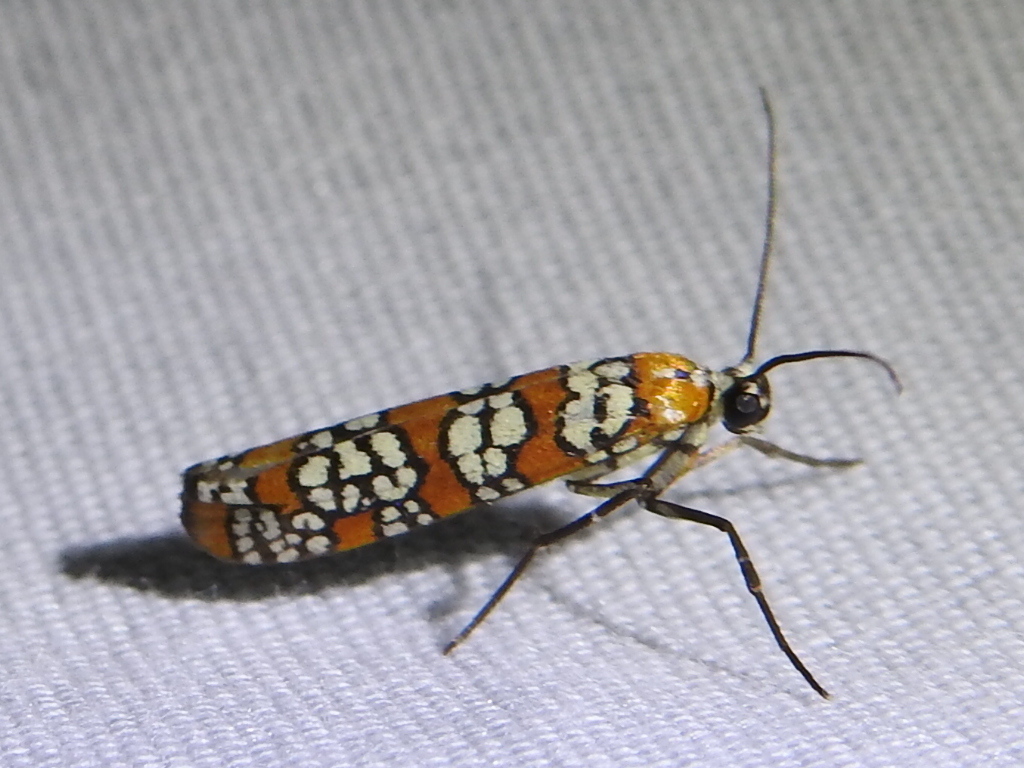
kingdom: Animalia
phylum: Arthropoda
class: Insecta
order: Lepidoptera
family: Attevidae
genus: Atteva
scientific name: Atteva punctella
